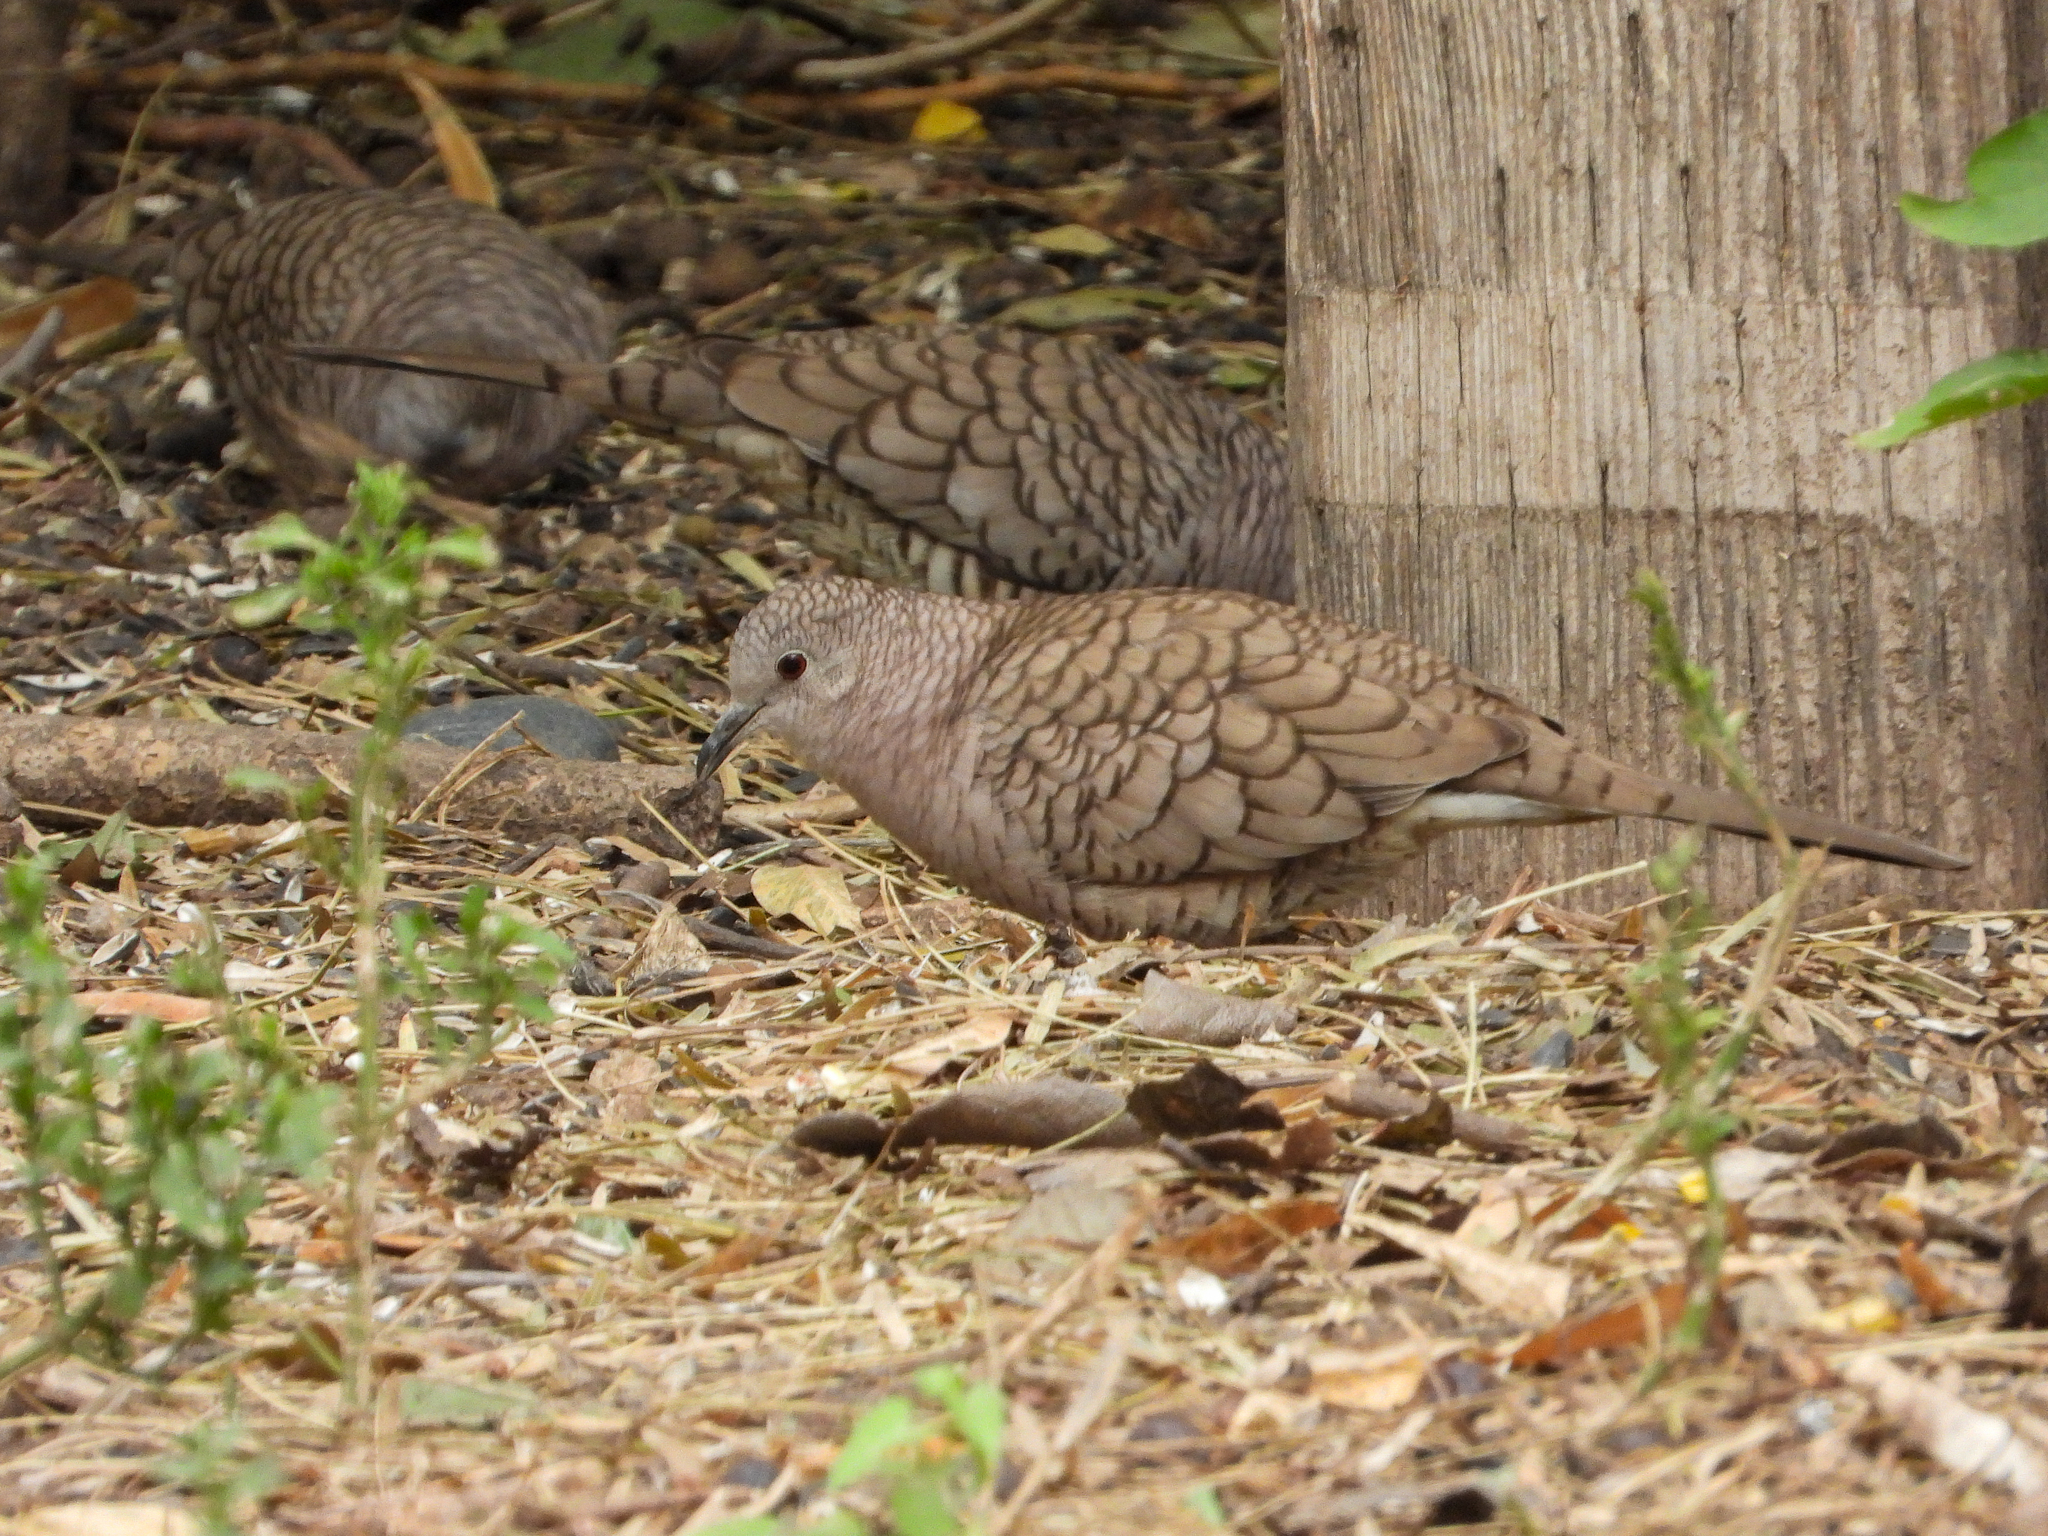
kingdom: Animalia
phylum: Chordata
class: Aves
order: Columbiformes
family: Columbidae
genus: Columbina
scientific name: Columbina inca
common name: Inca dove
